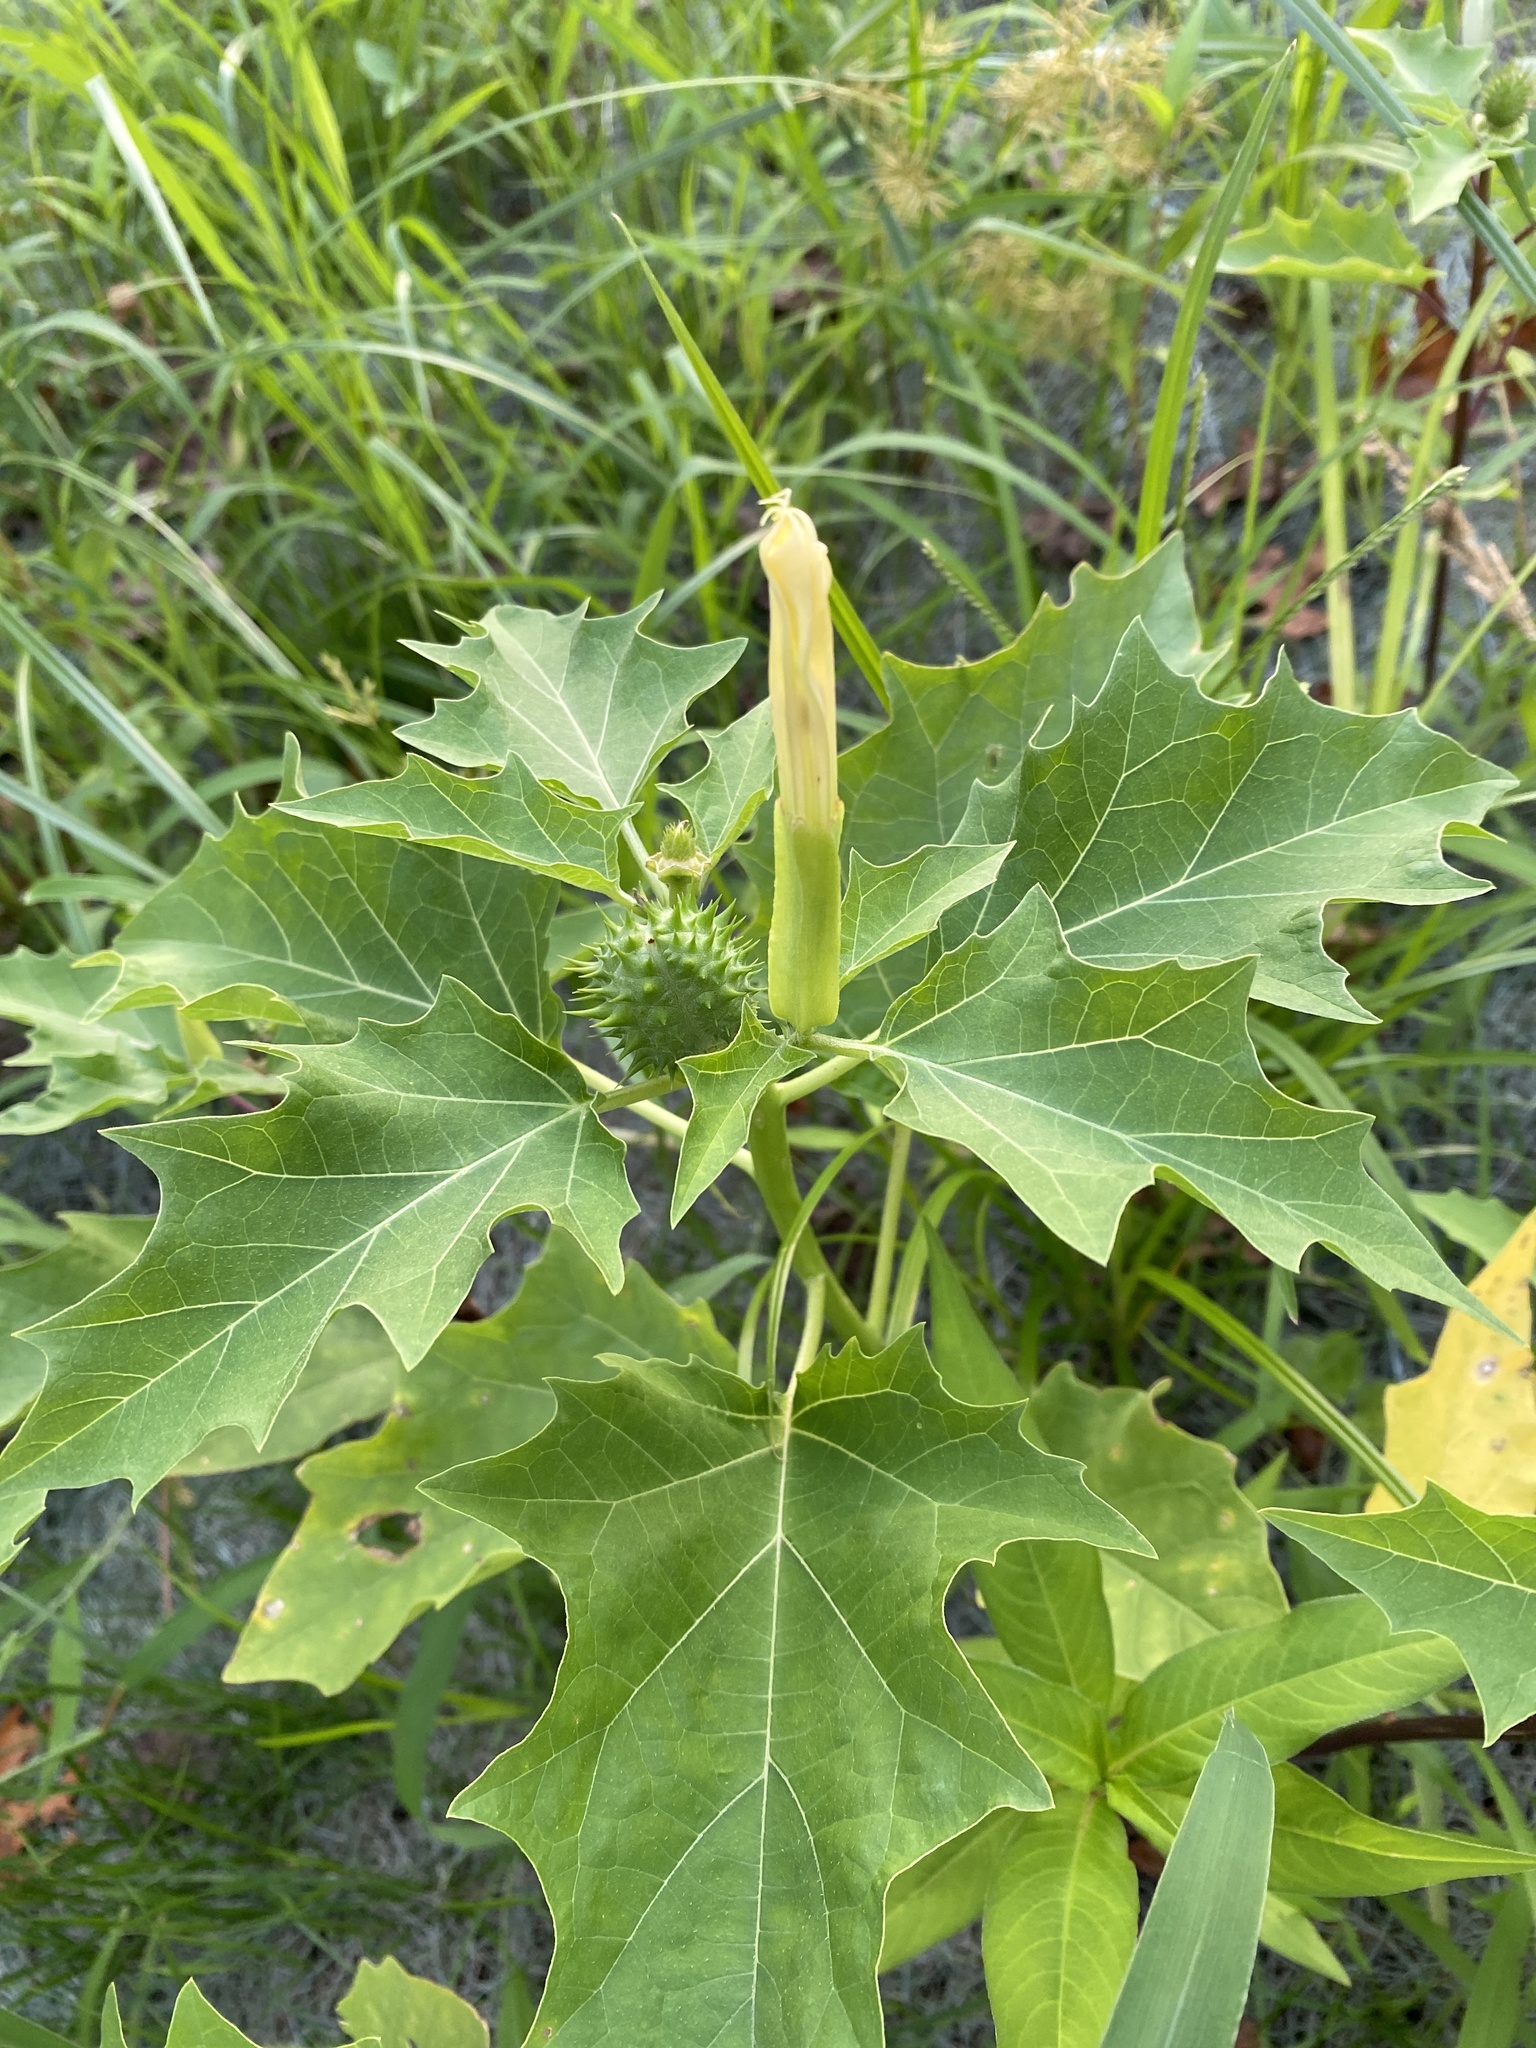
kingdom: Plantae
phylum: Tracheophyta
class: Magnoliopsida
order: Solanales
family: Solanaceae
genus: Datura
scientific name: Datura stramonium
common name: Thorn-apple
